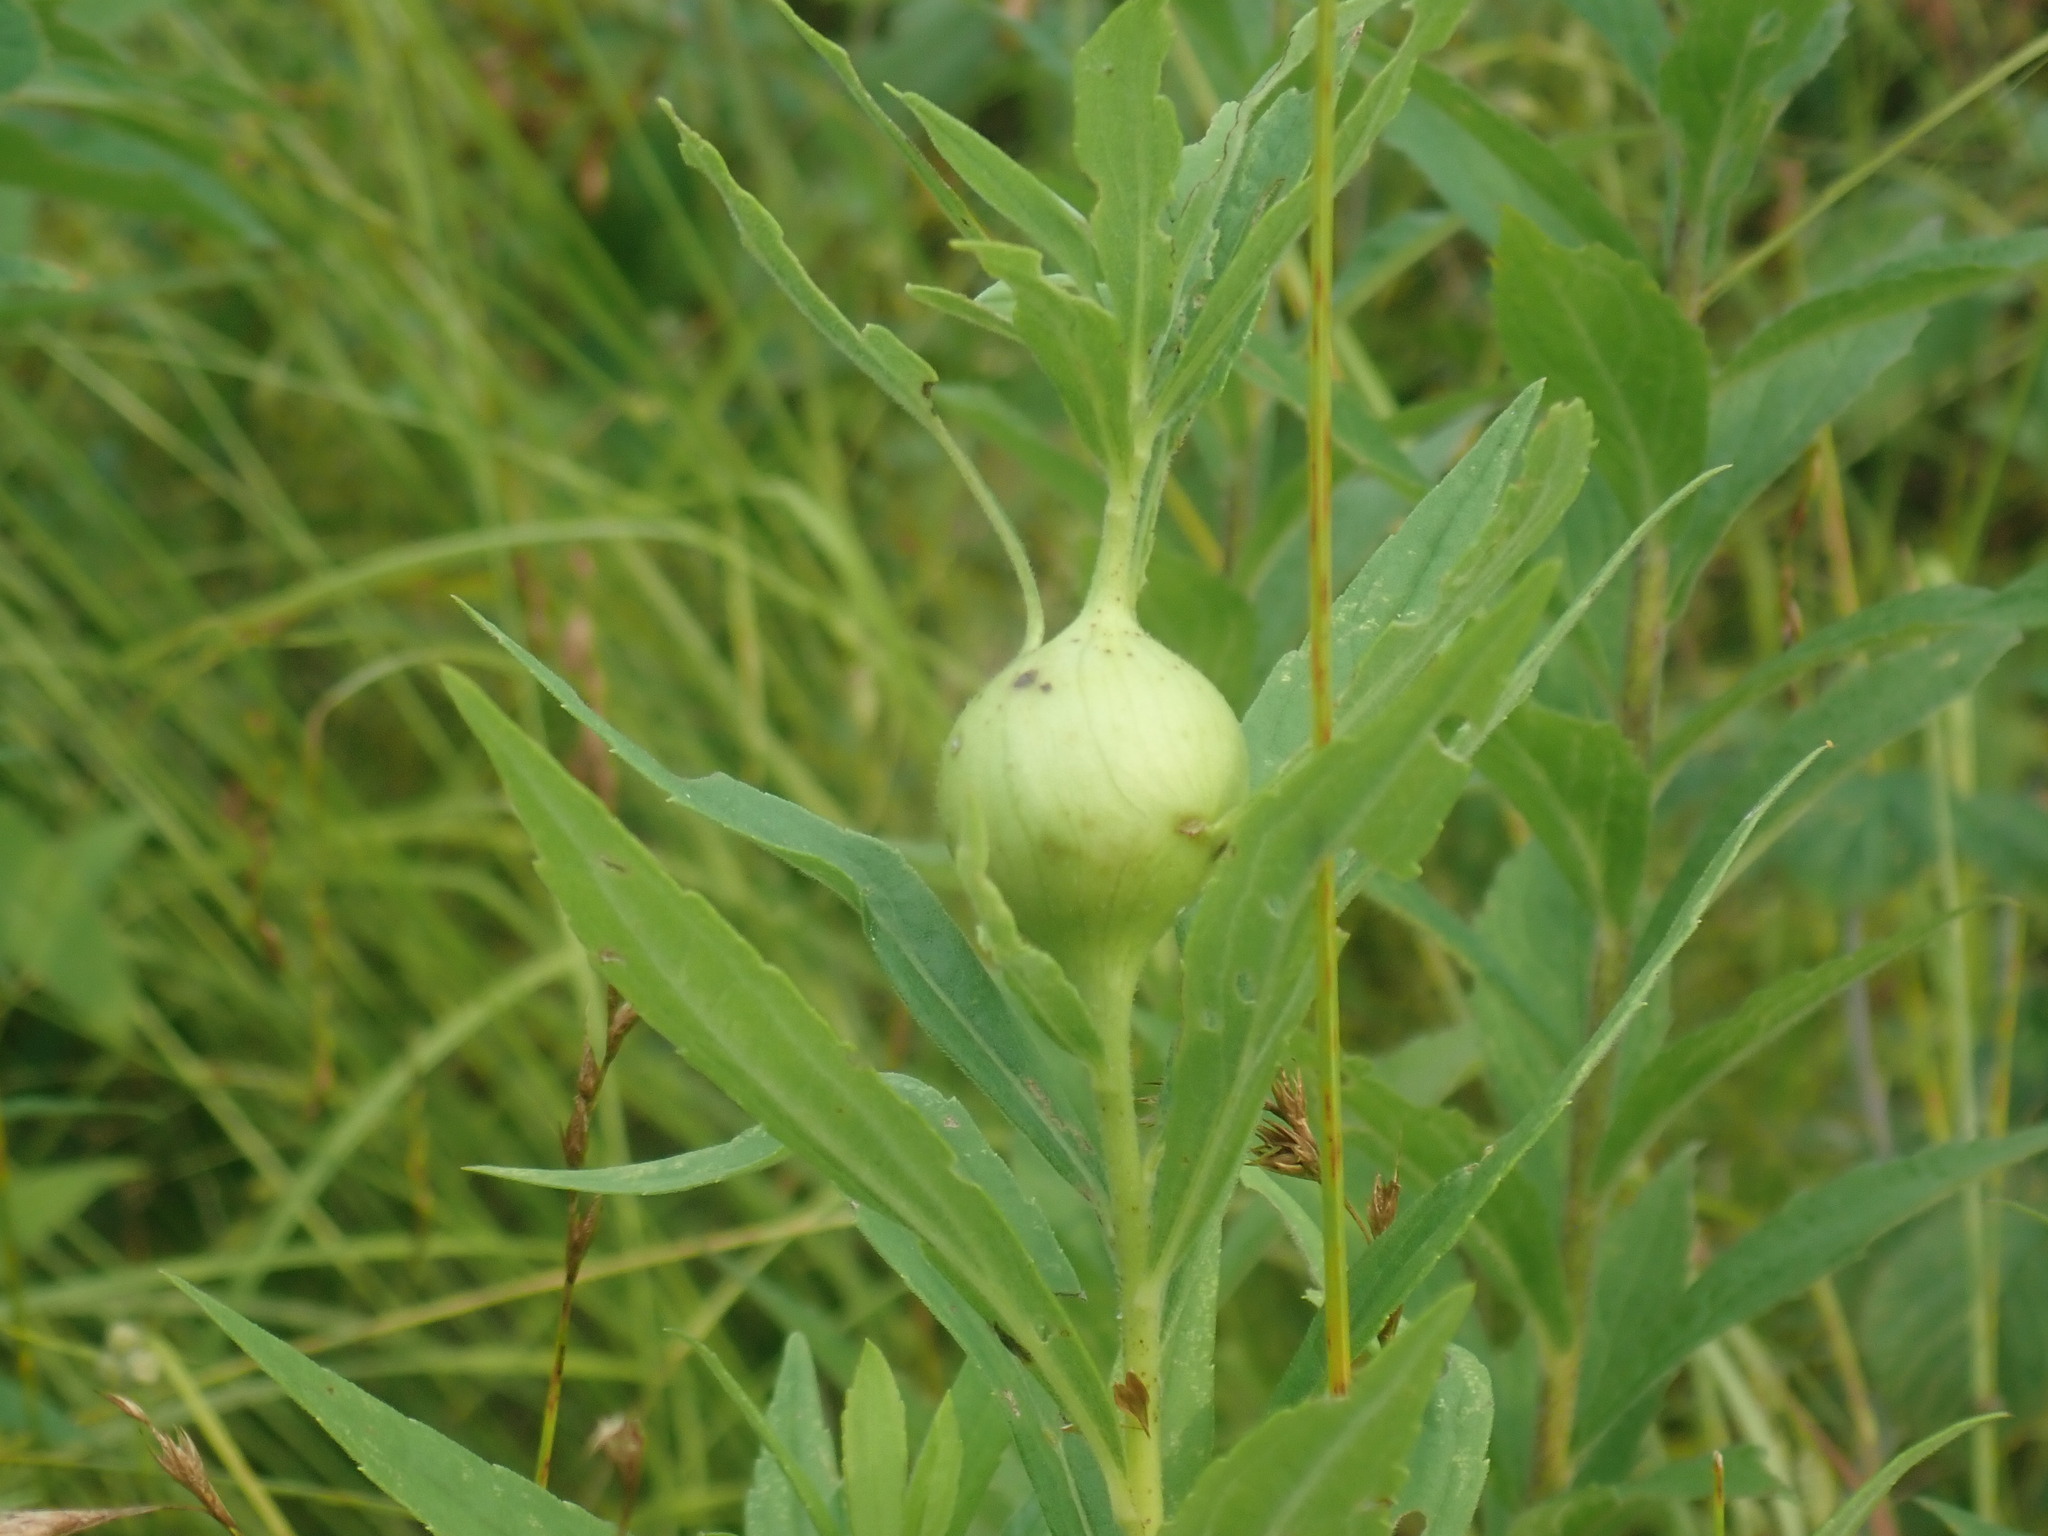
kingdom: Animalia
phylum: Arthropoda
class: Insecta
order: Diptera
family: Tephritidae
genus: Eurosta
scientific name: Eurosta solidaginis
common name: Goldenrod gall fly
